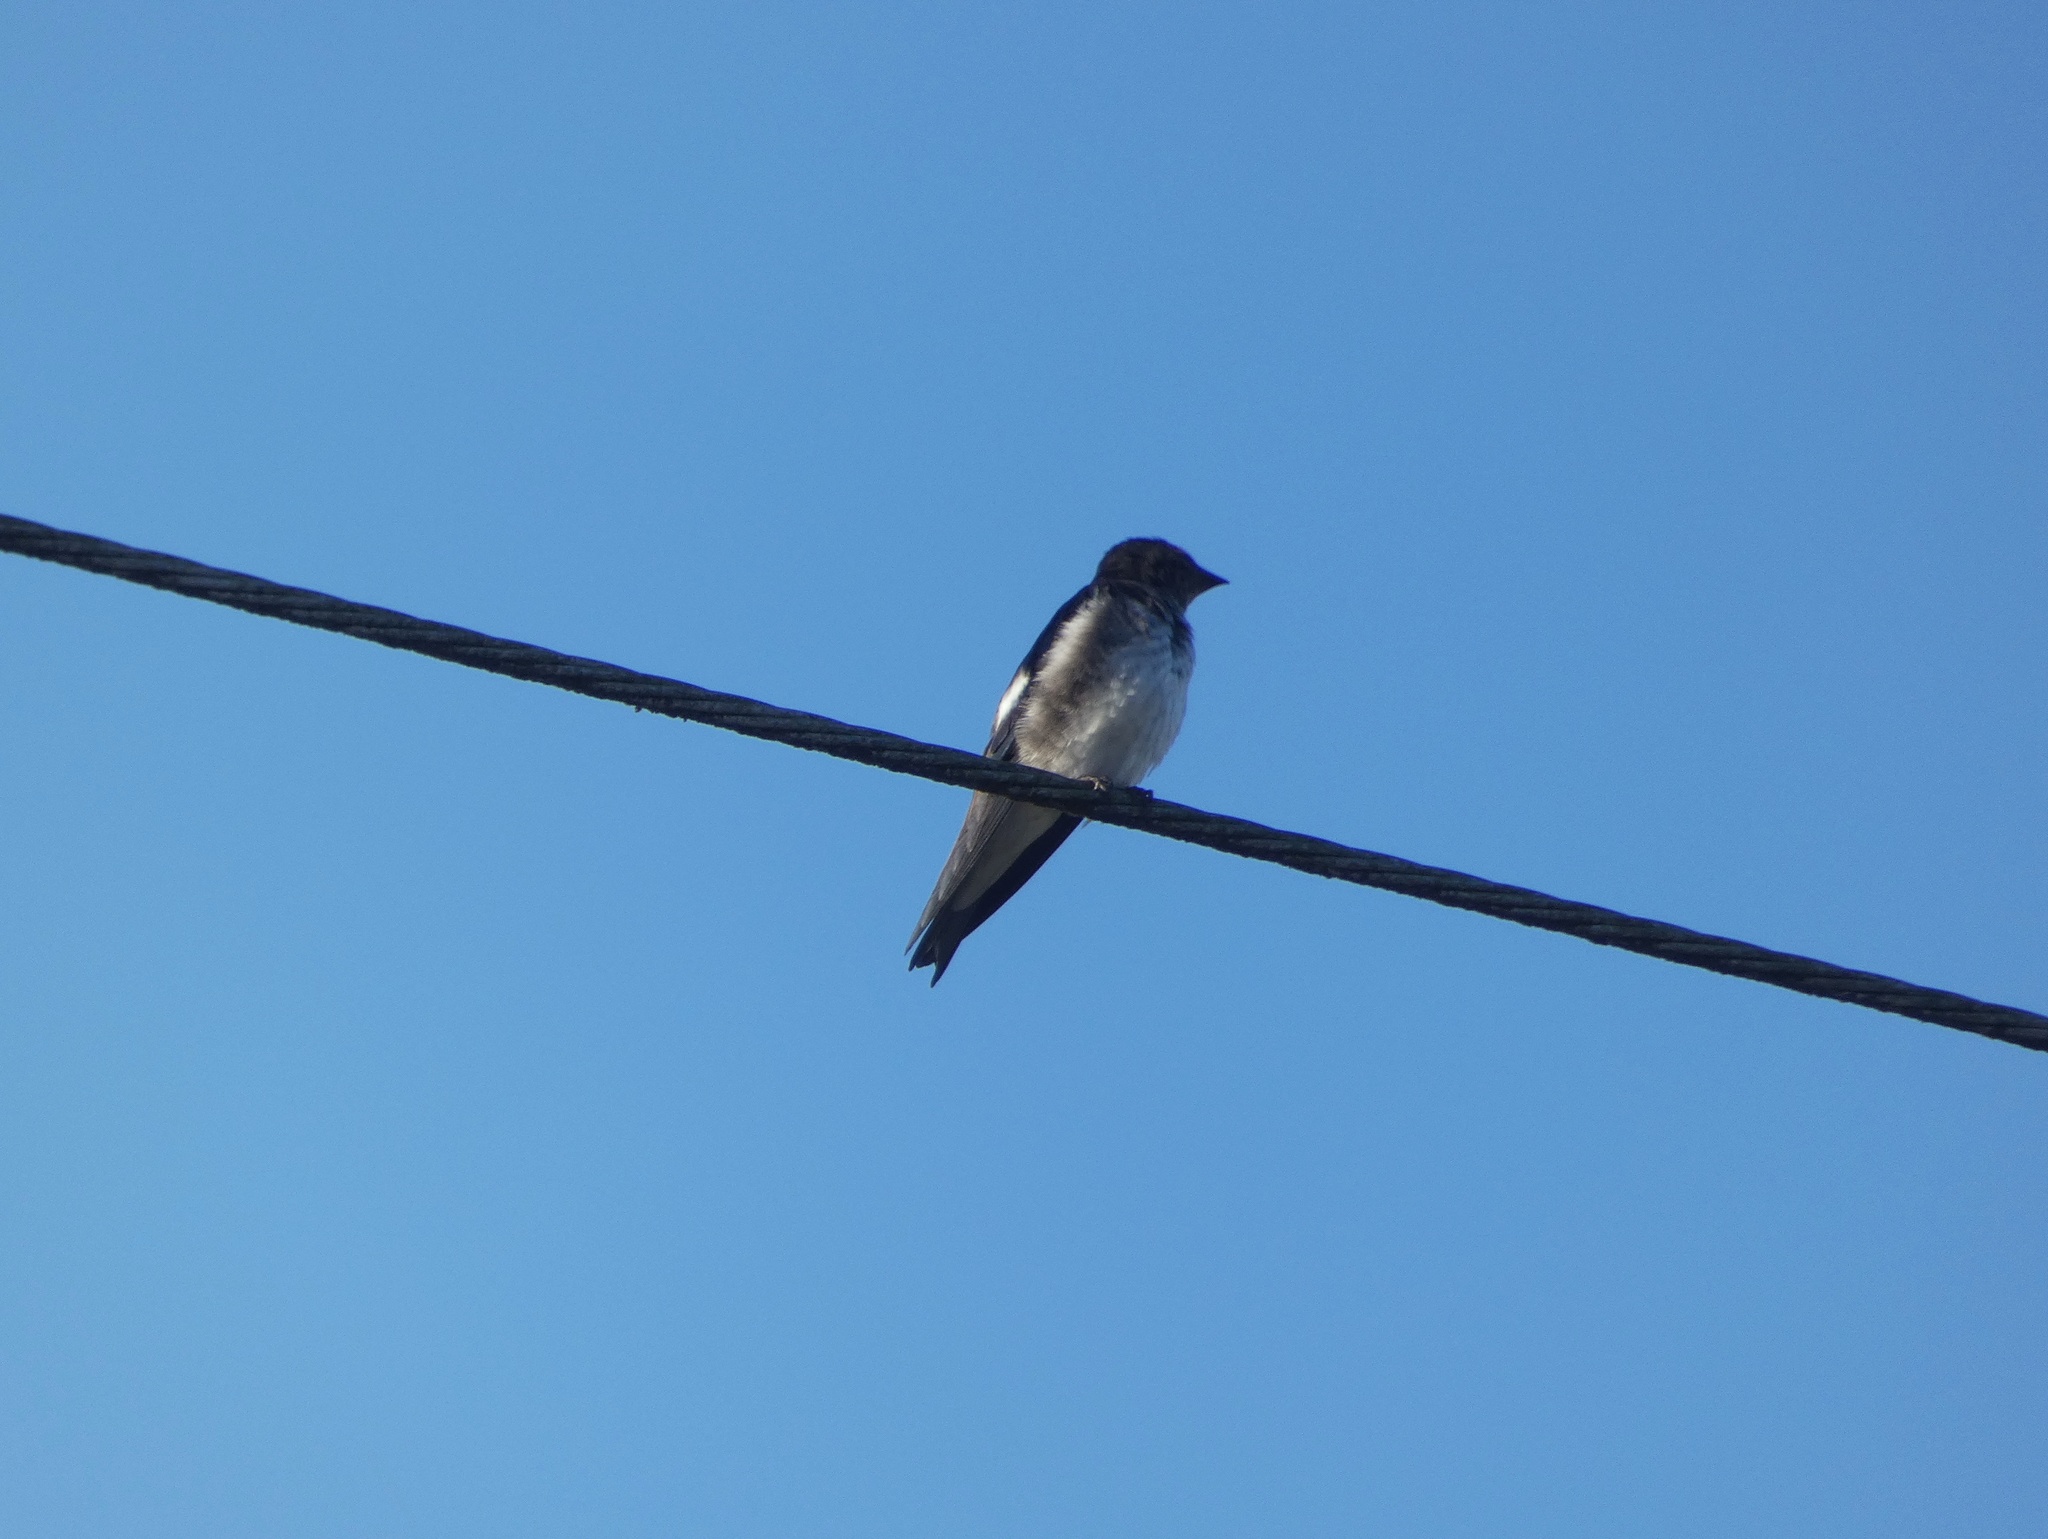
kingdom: Animalia
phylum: Chordata
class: Aves
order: Passeriformes
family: Hirundinidae
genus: Progne
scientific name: Progne chalybea
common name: Grey-breasted martin
